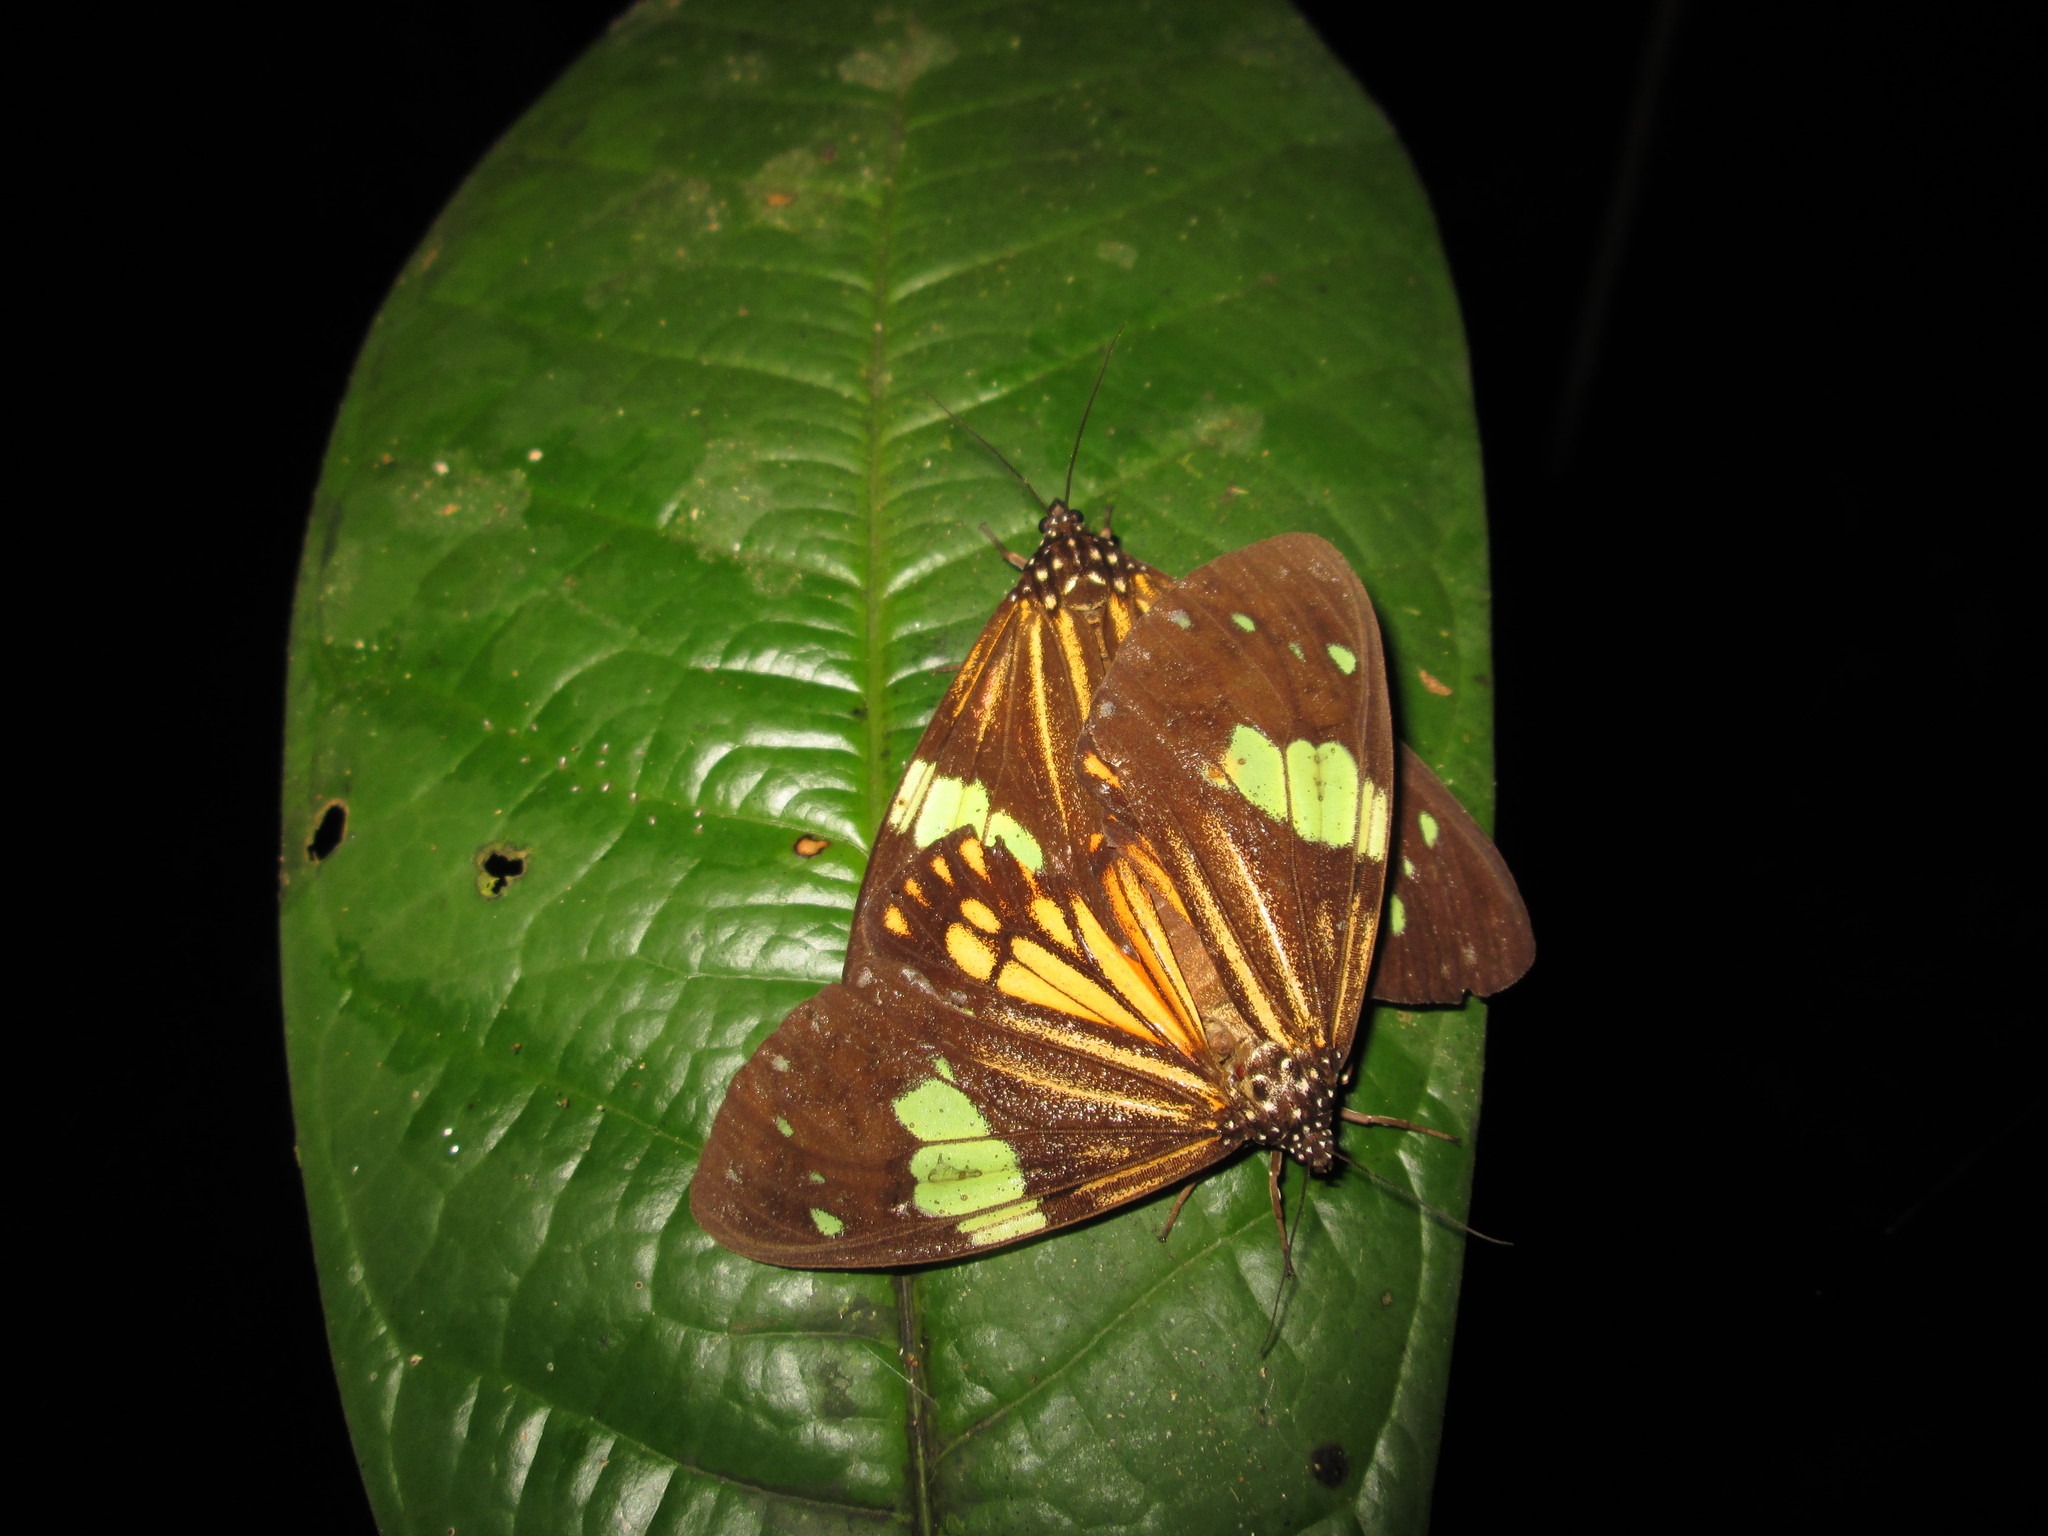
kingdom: Animalia
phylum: Arthropoda
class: Insecta
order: Lepidoptera
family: Erebidae
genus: Chetone
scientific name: Chetone ithrana
